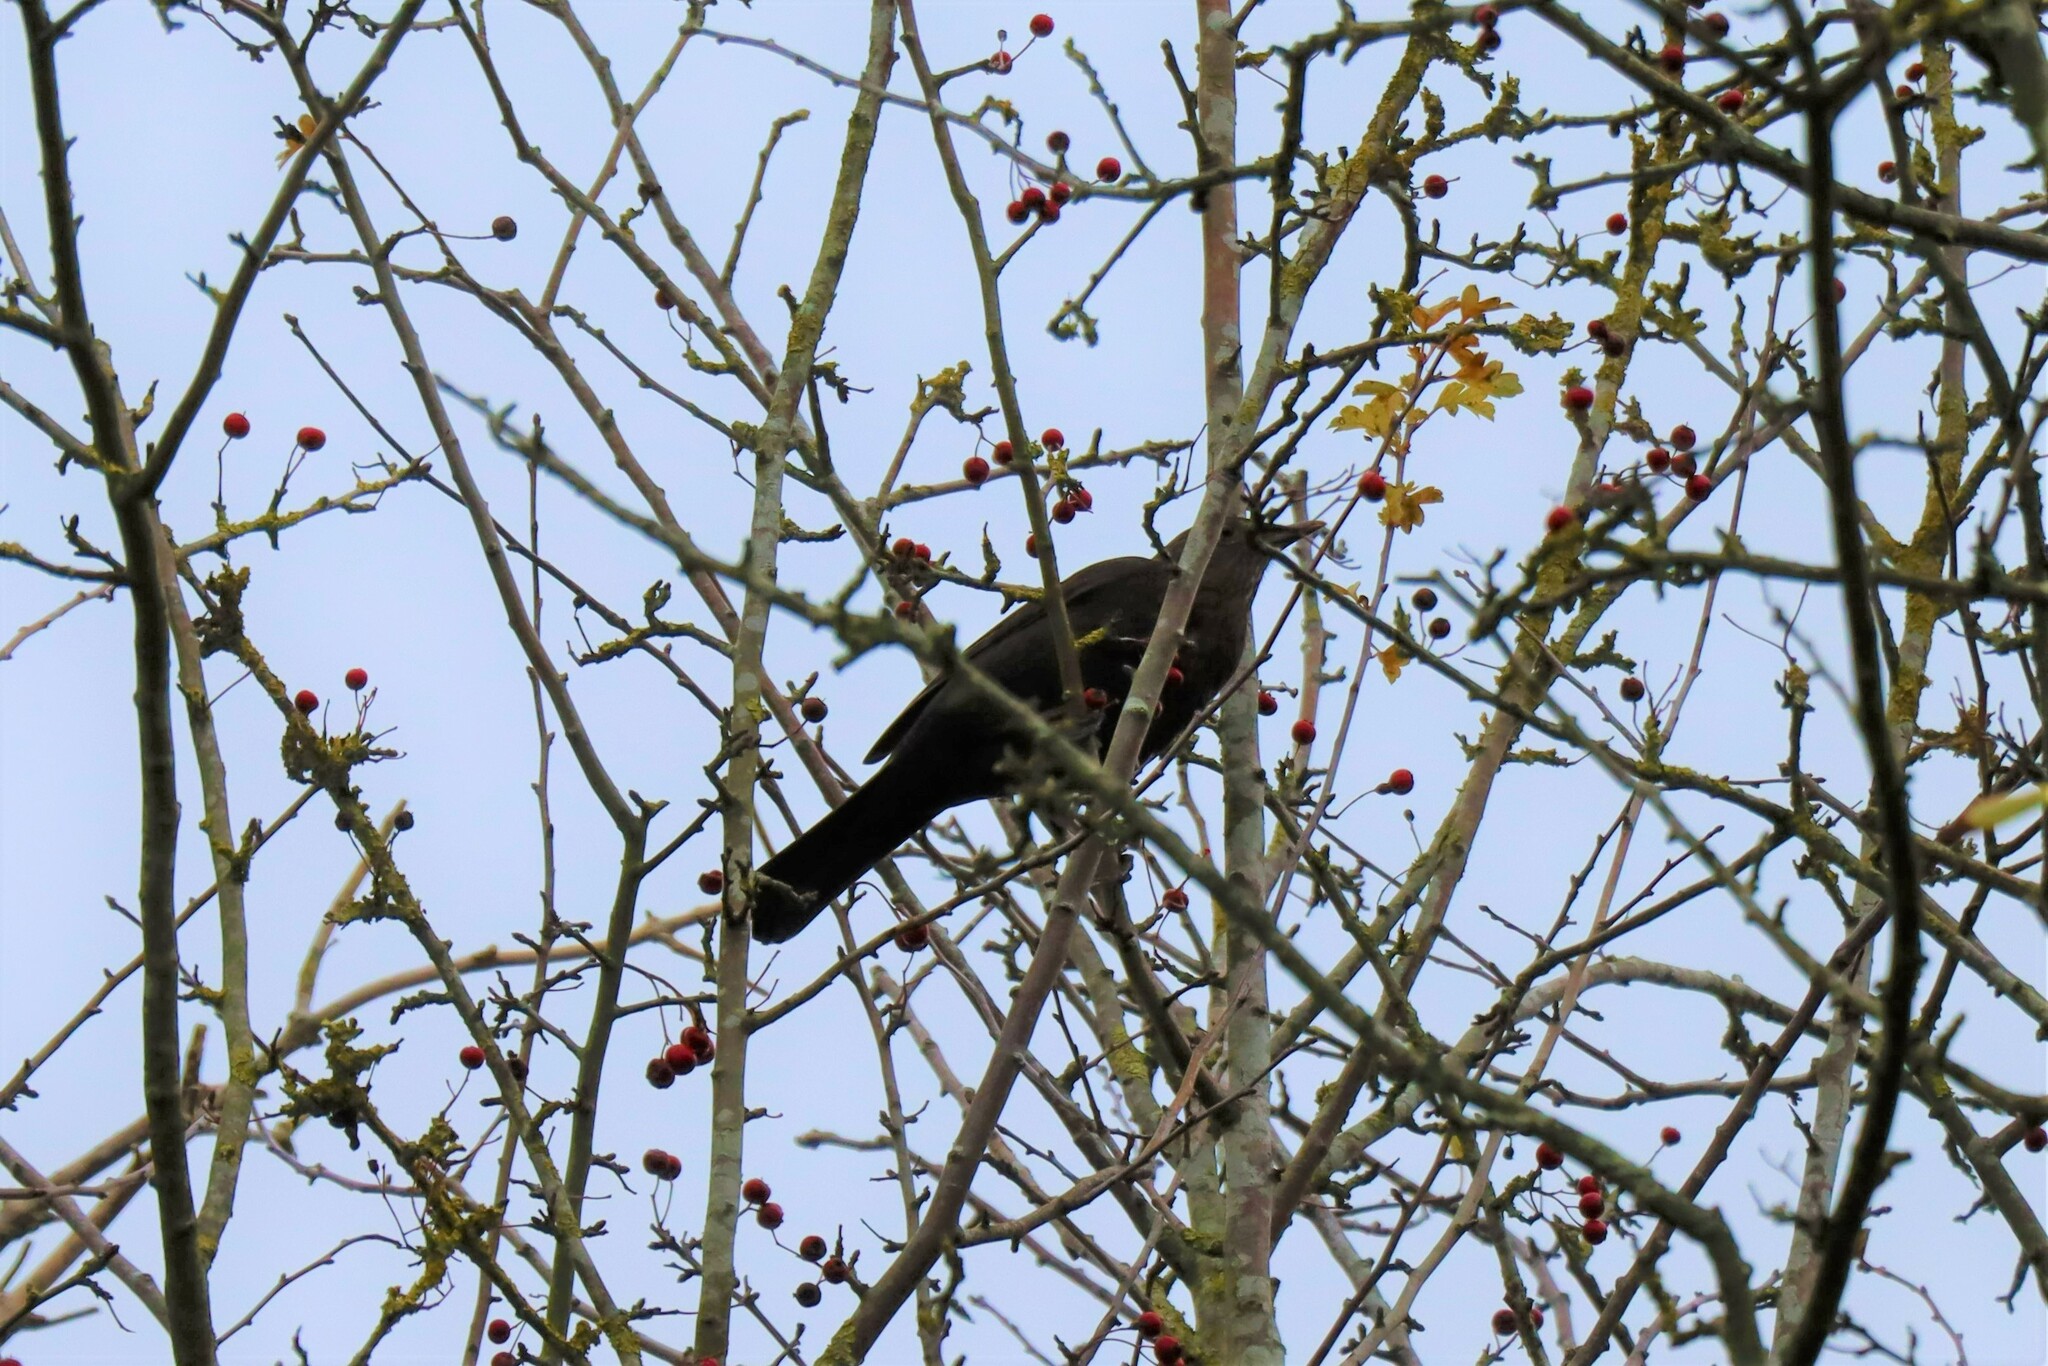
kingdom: Animalia
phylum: Chordata
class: Aves
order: Passeriformes
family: Turdidae
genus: Turdus
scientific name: Turdus merula
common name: Common blackbird
